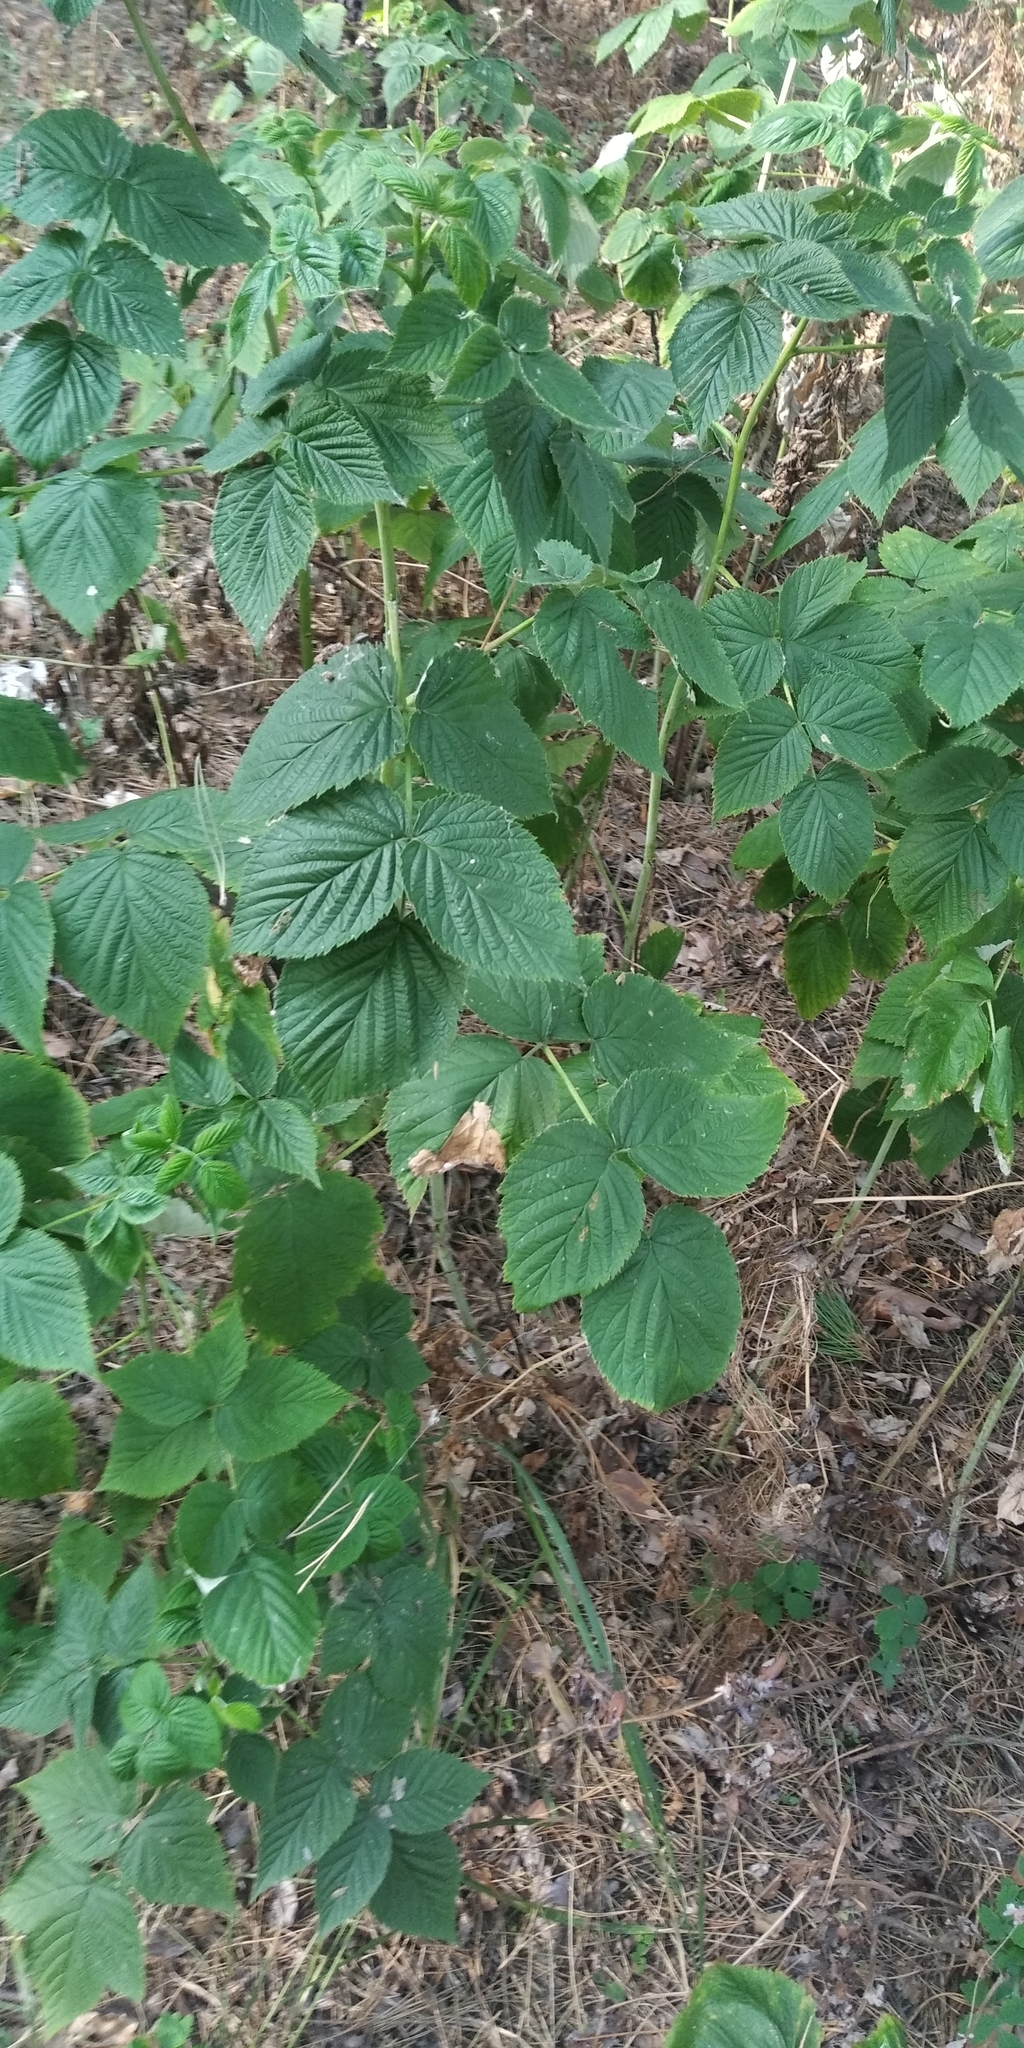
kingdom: Plantae
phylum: Tracheophyta
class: Magnoliopsida
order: Rosales
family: Rosaceae
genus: Rubus
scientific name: Rubus idaeus
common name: Raspberry
